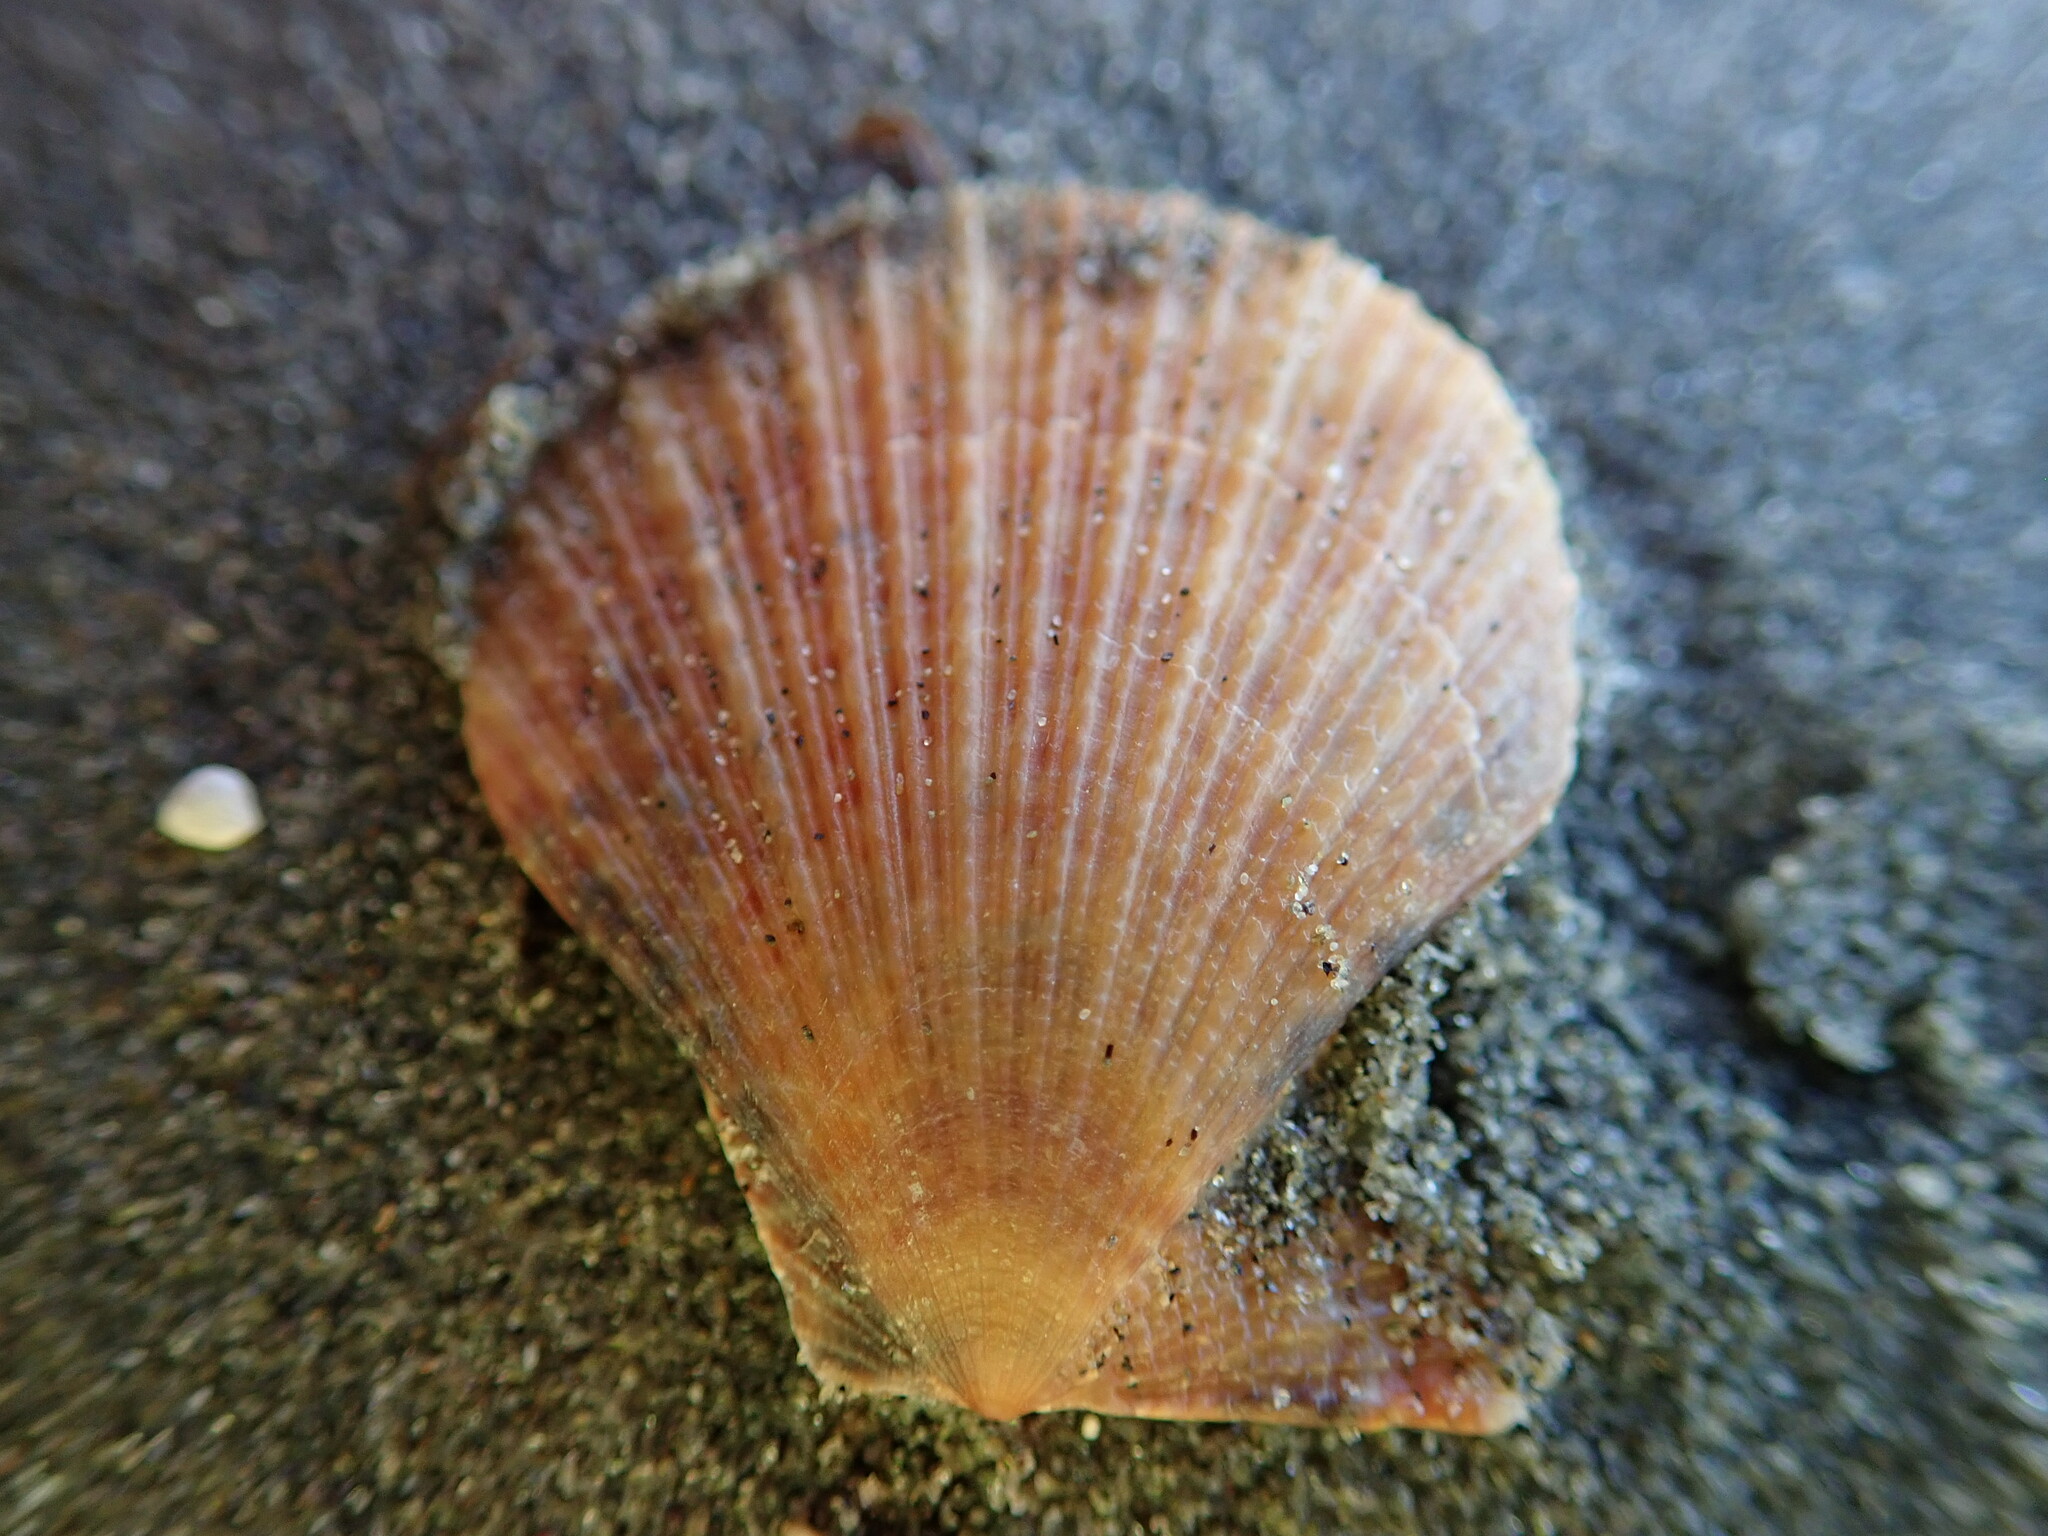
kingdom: Animalia
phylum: Mollusca
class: Bivalvia
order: Pectinida
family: Pectinidae
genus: Talochlamys
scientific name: Talochlamys zelandiae
